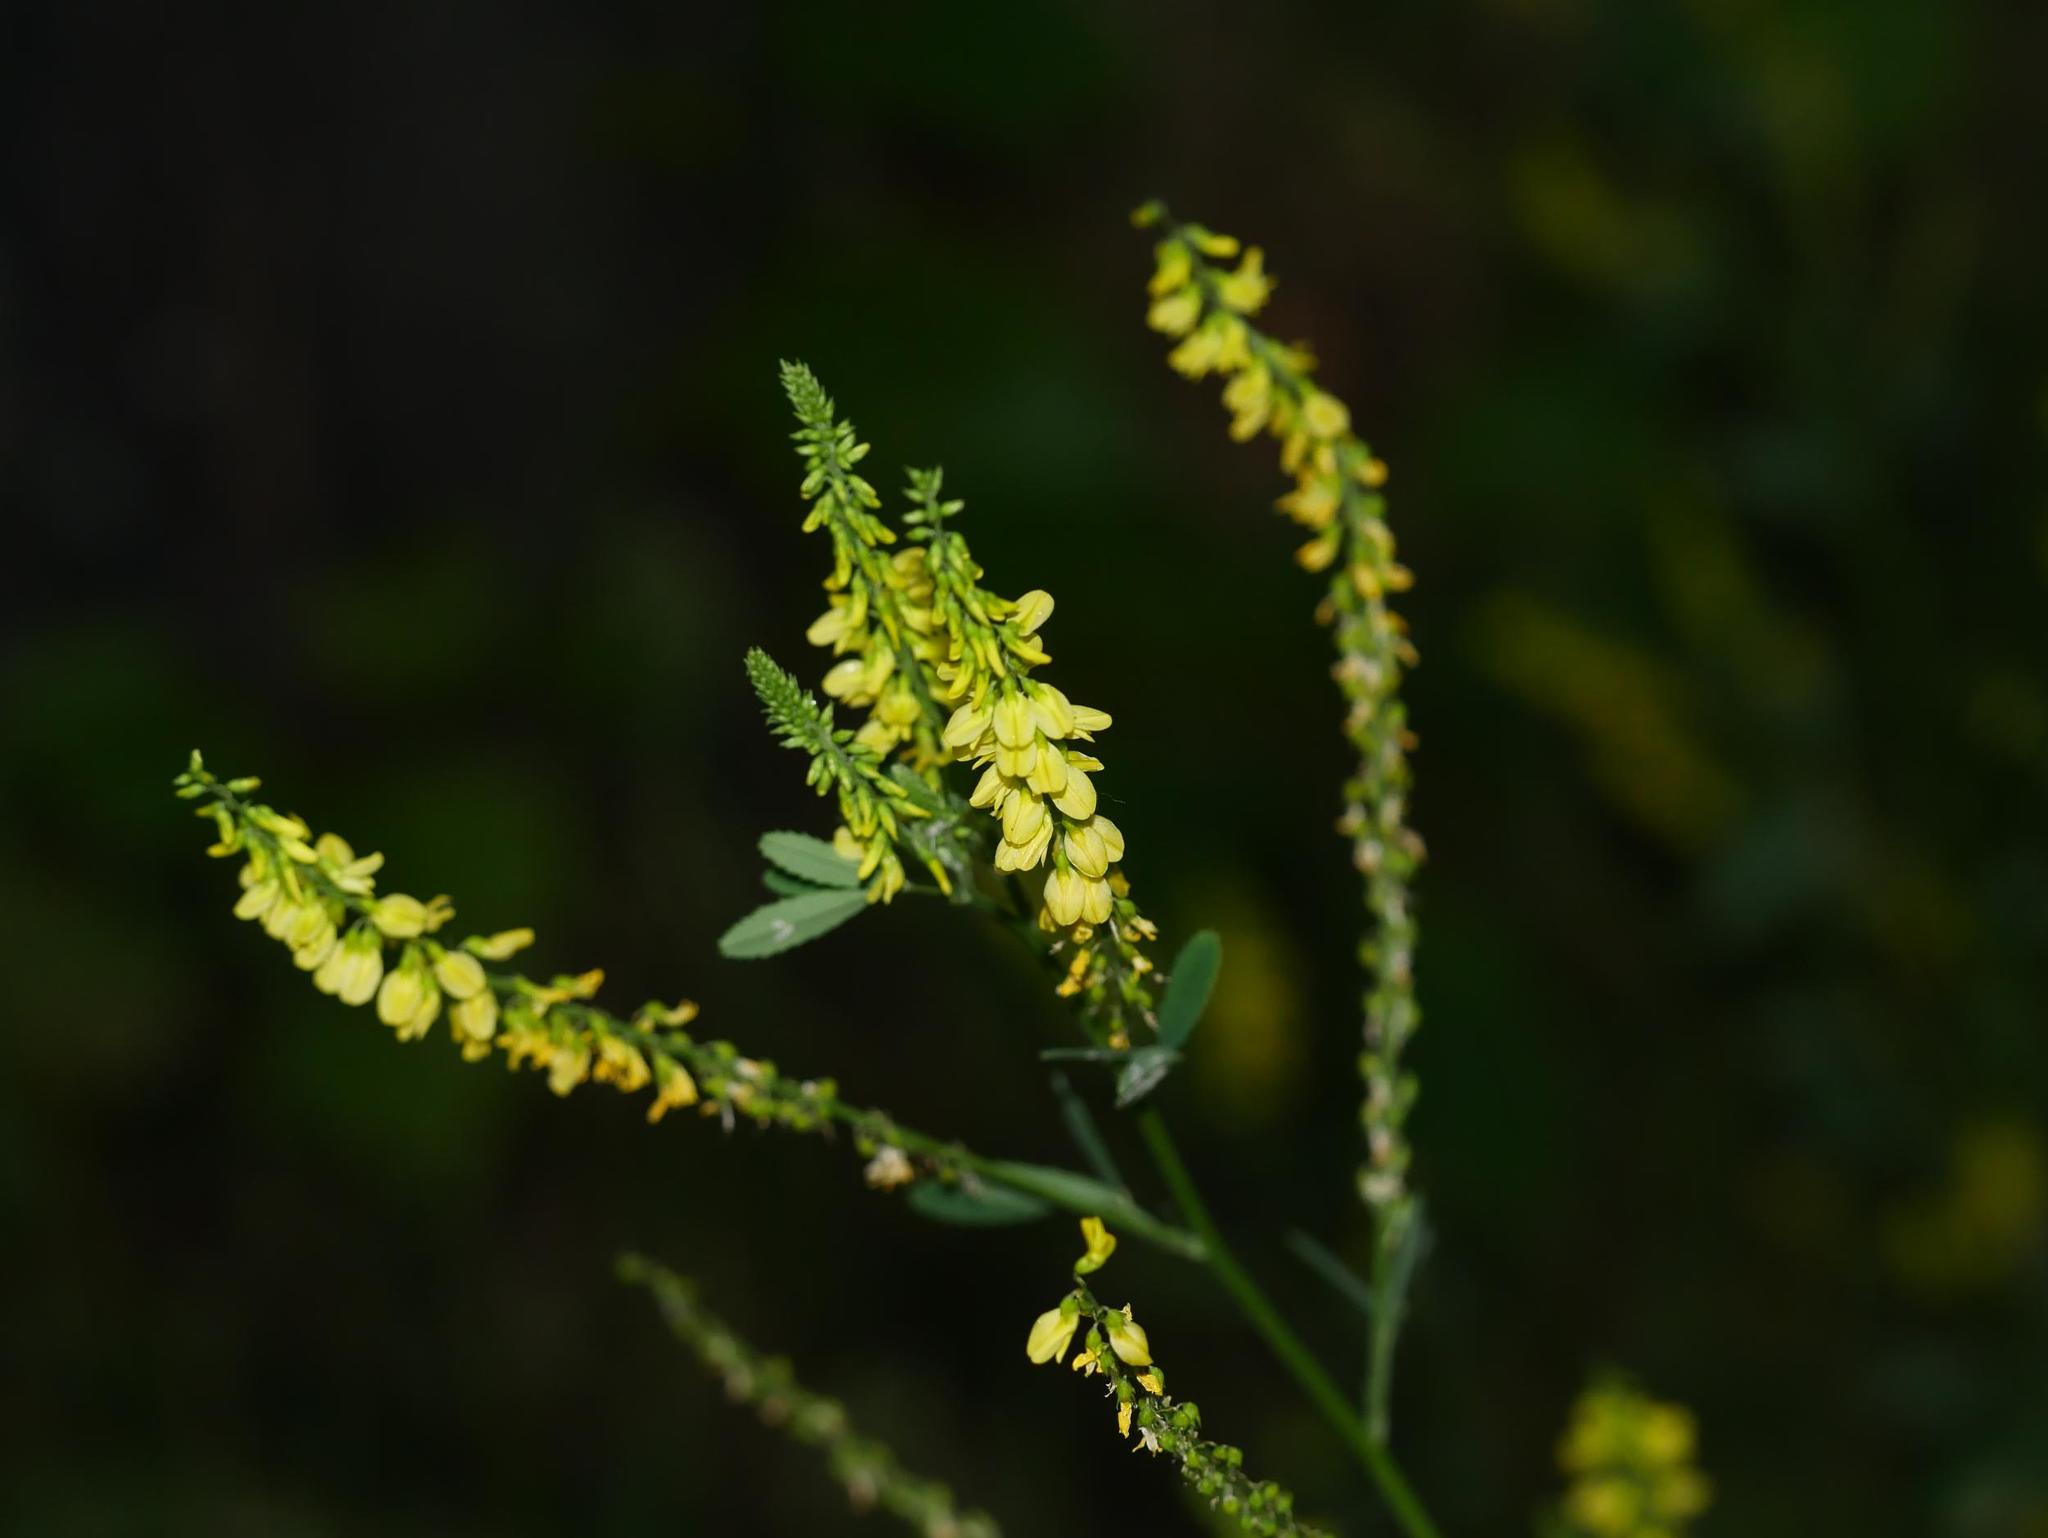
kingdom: Plantae
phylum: Tracheophyta
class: Magnoliopsida
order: Fabales
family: Fabaceae
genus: Melilotus
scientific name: Melilotus officinalis
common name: Sweetclover
